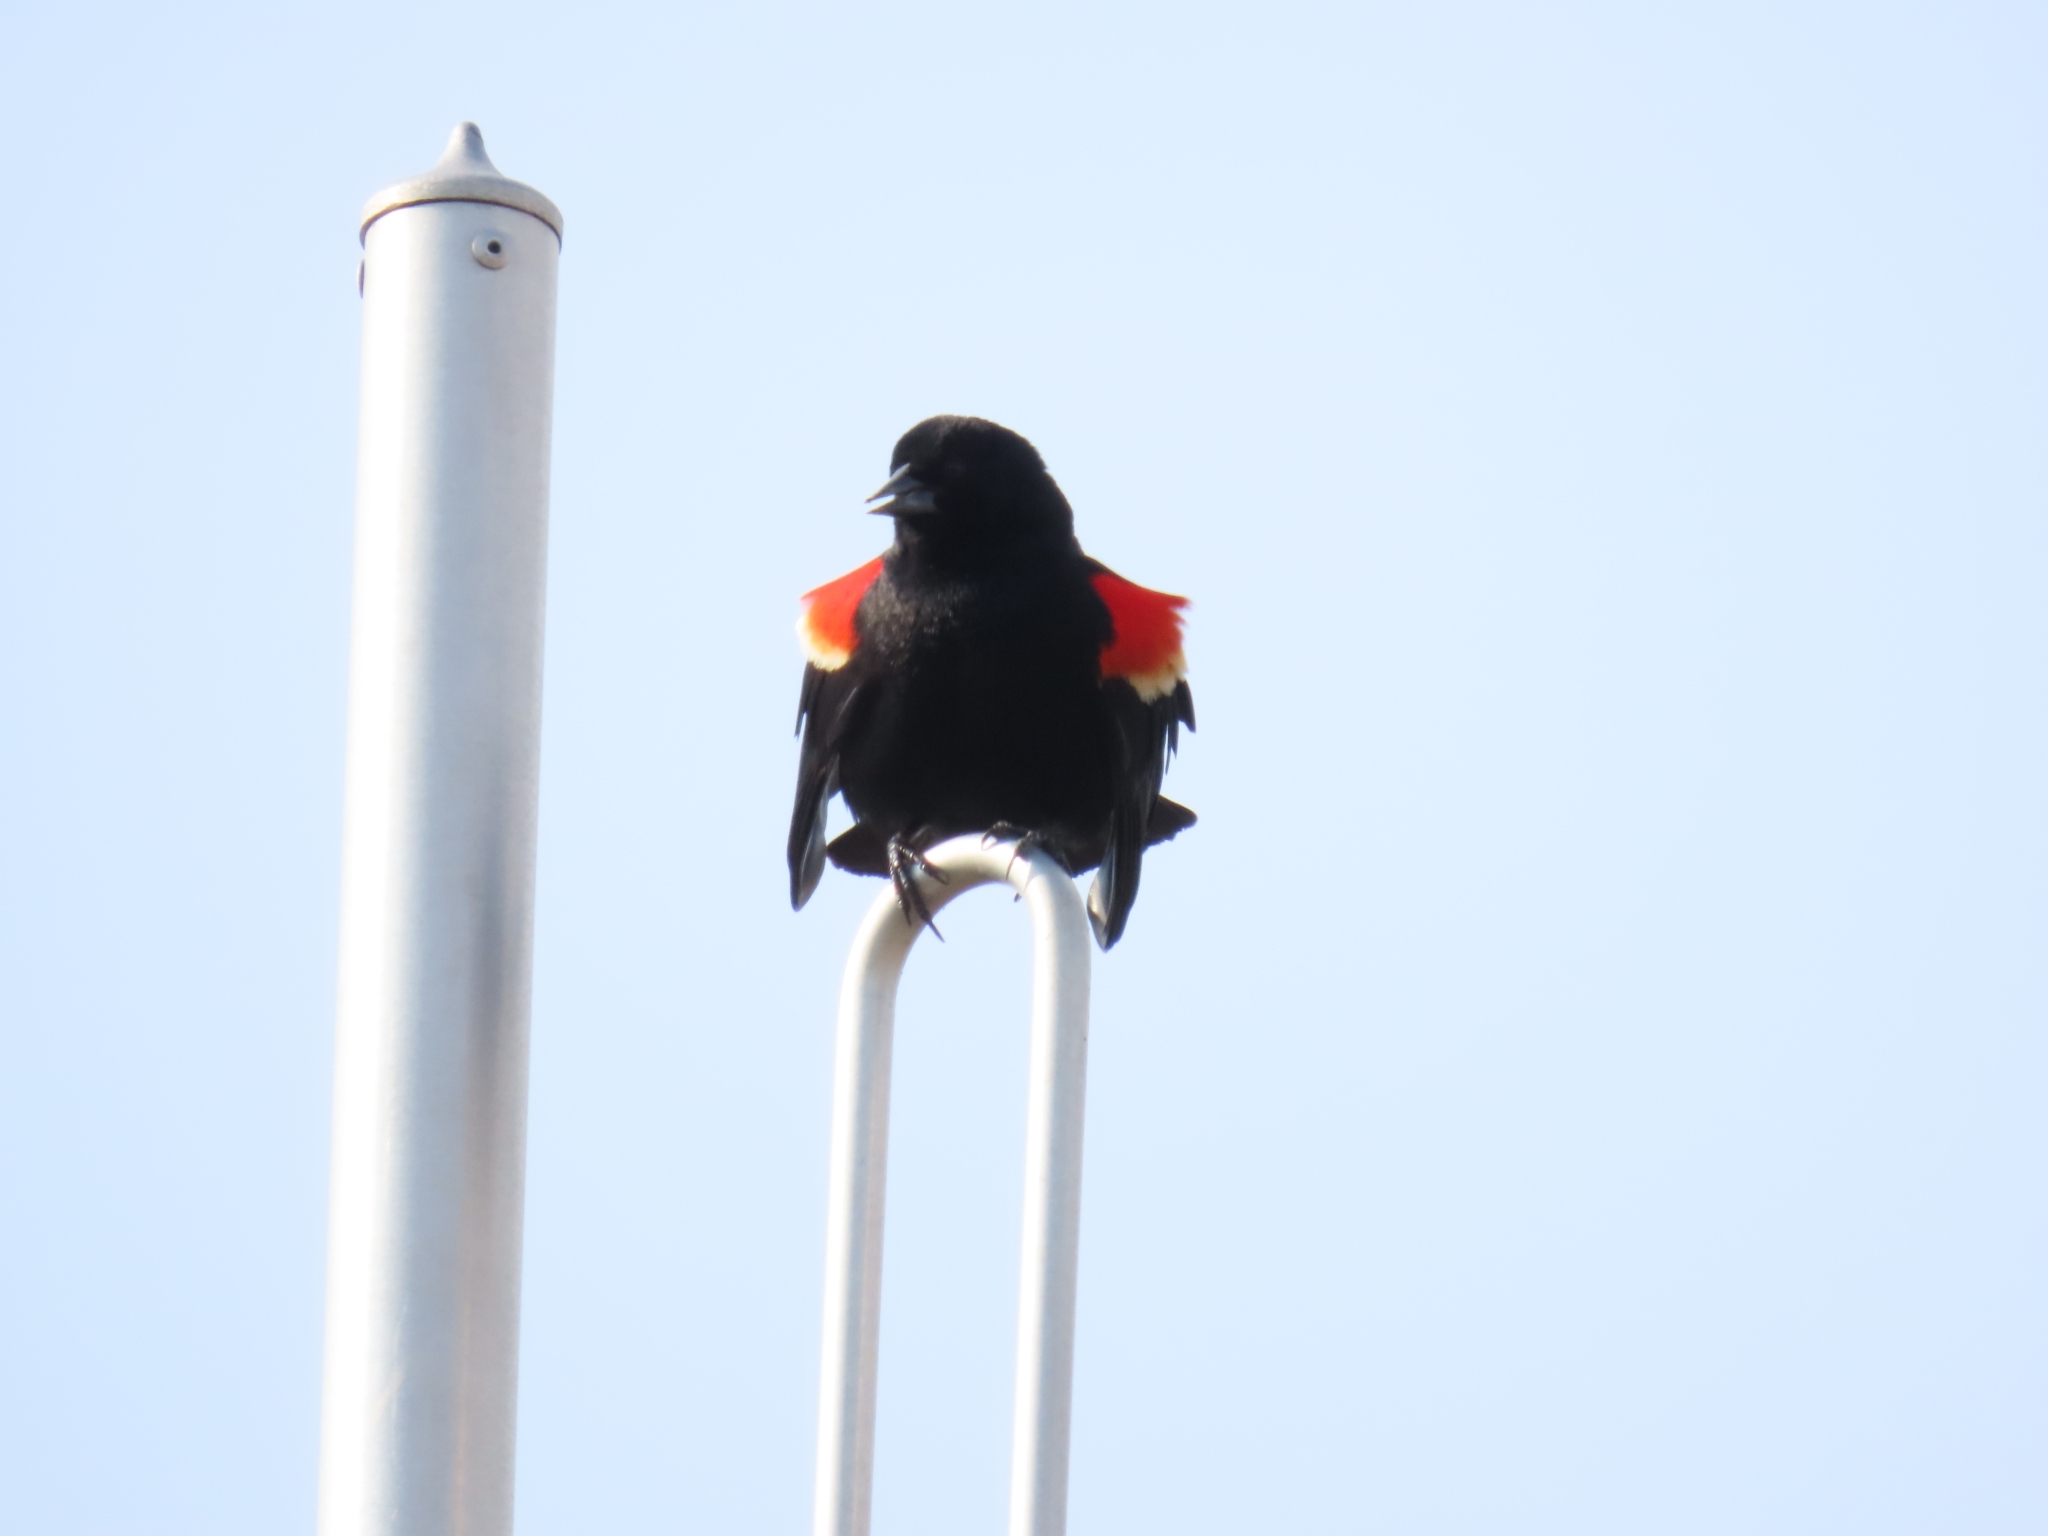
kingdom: Animalia
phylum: Chordata
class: Aves
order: Passeriformes
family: Icteridae
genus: Agelaius
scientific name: Agelaius phoeniceus
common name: Red-winged blackbird
